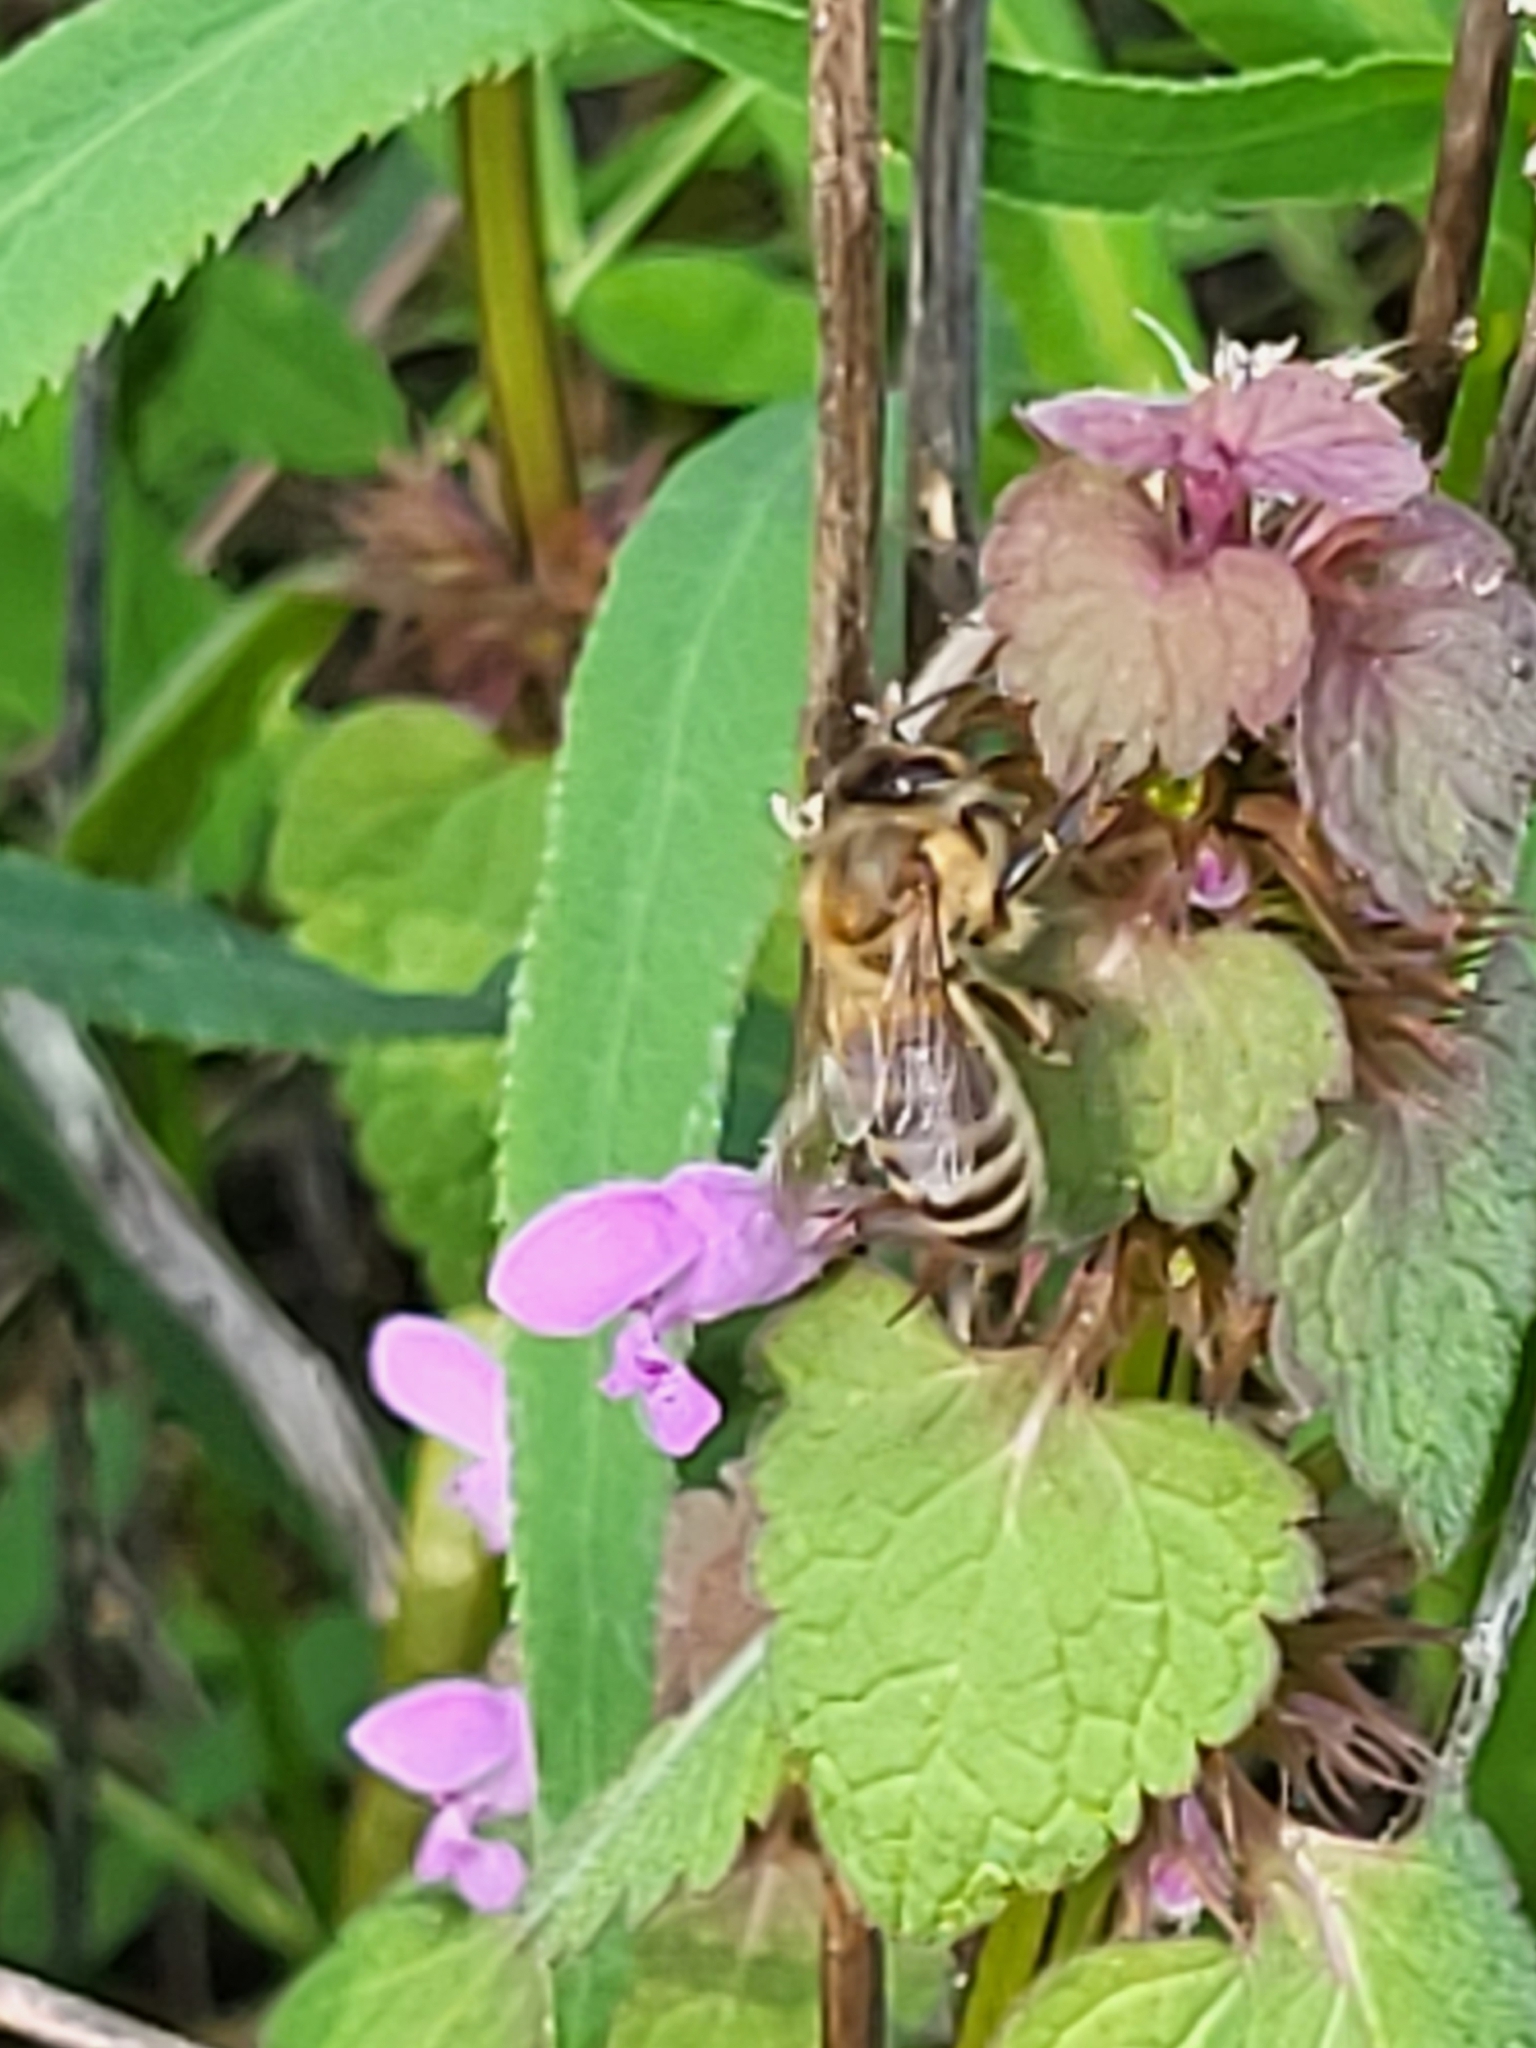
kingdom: Animalia
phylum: Arthropoda
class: Insecta
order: Hymenoptera
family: Apidae
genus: Apis
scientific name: Apis mellifera
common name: Honey bee
